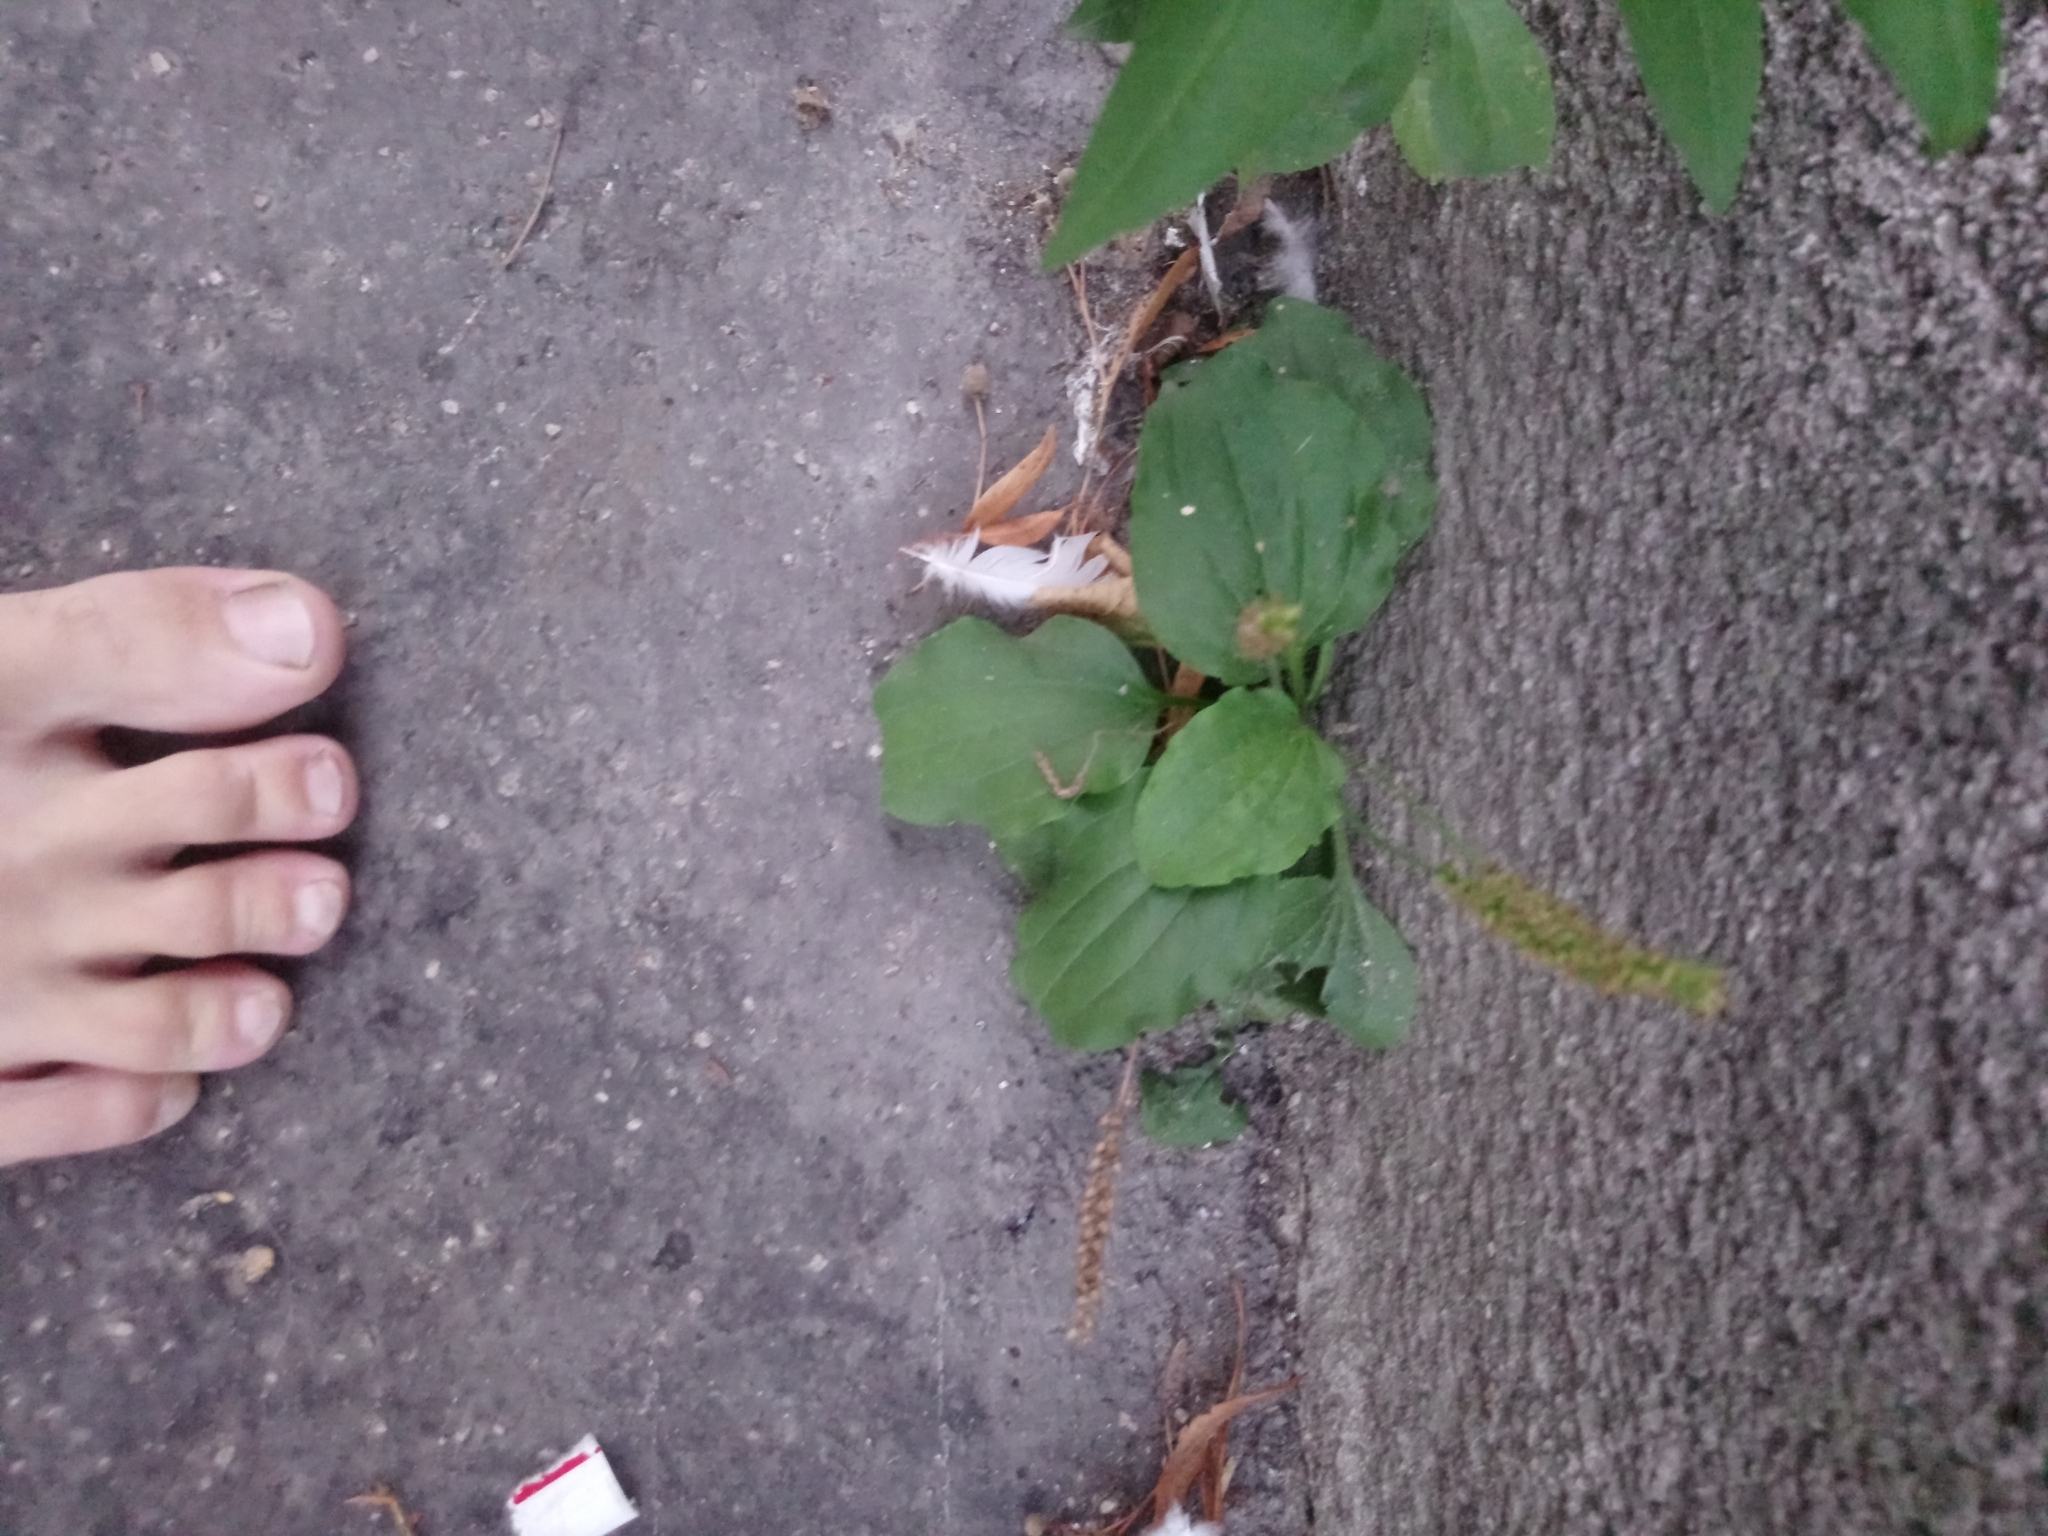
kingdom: Plantae
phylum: Tracheophyta
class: Magnoliopsida
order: Lamiales
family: Plantaginaceae
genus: Plantago
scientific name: Plantago major
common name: Common plantain
